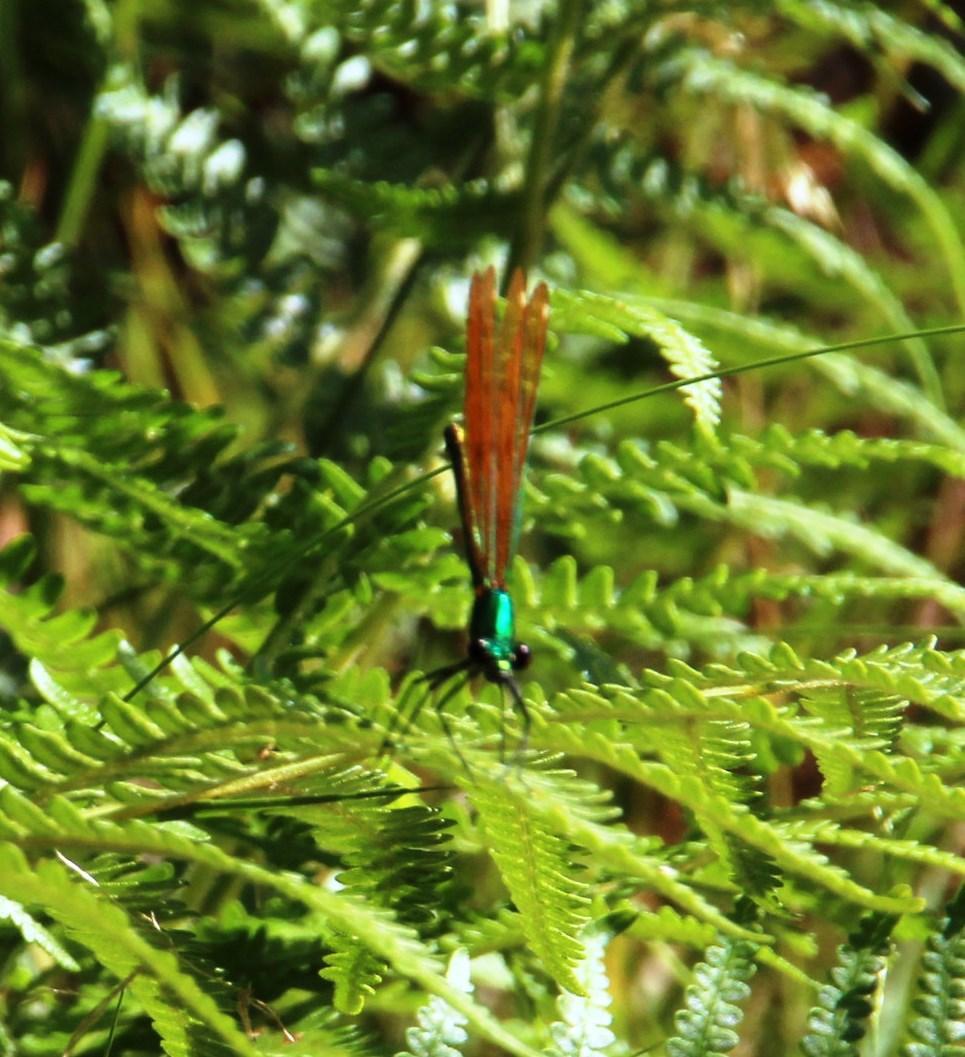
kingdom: Animalia
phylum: Arthropoda
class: Insecta
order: Odonata
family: Calopterygidae
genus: Calopteryx
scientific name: Calopteryx virgo
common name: Beautiful demoiselle
